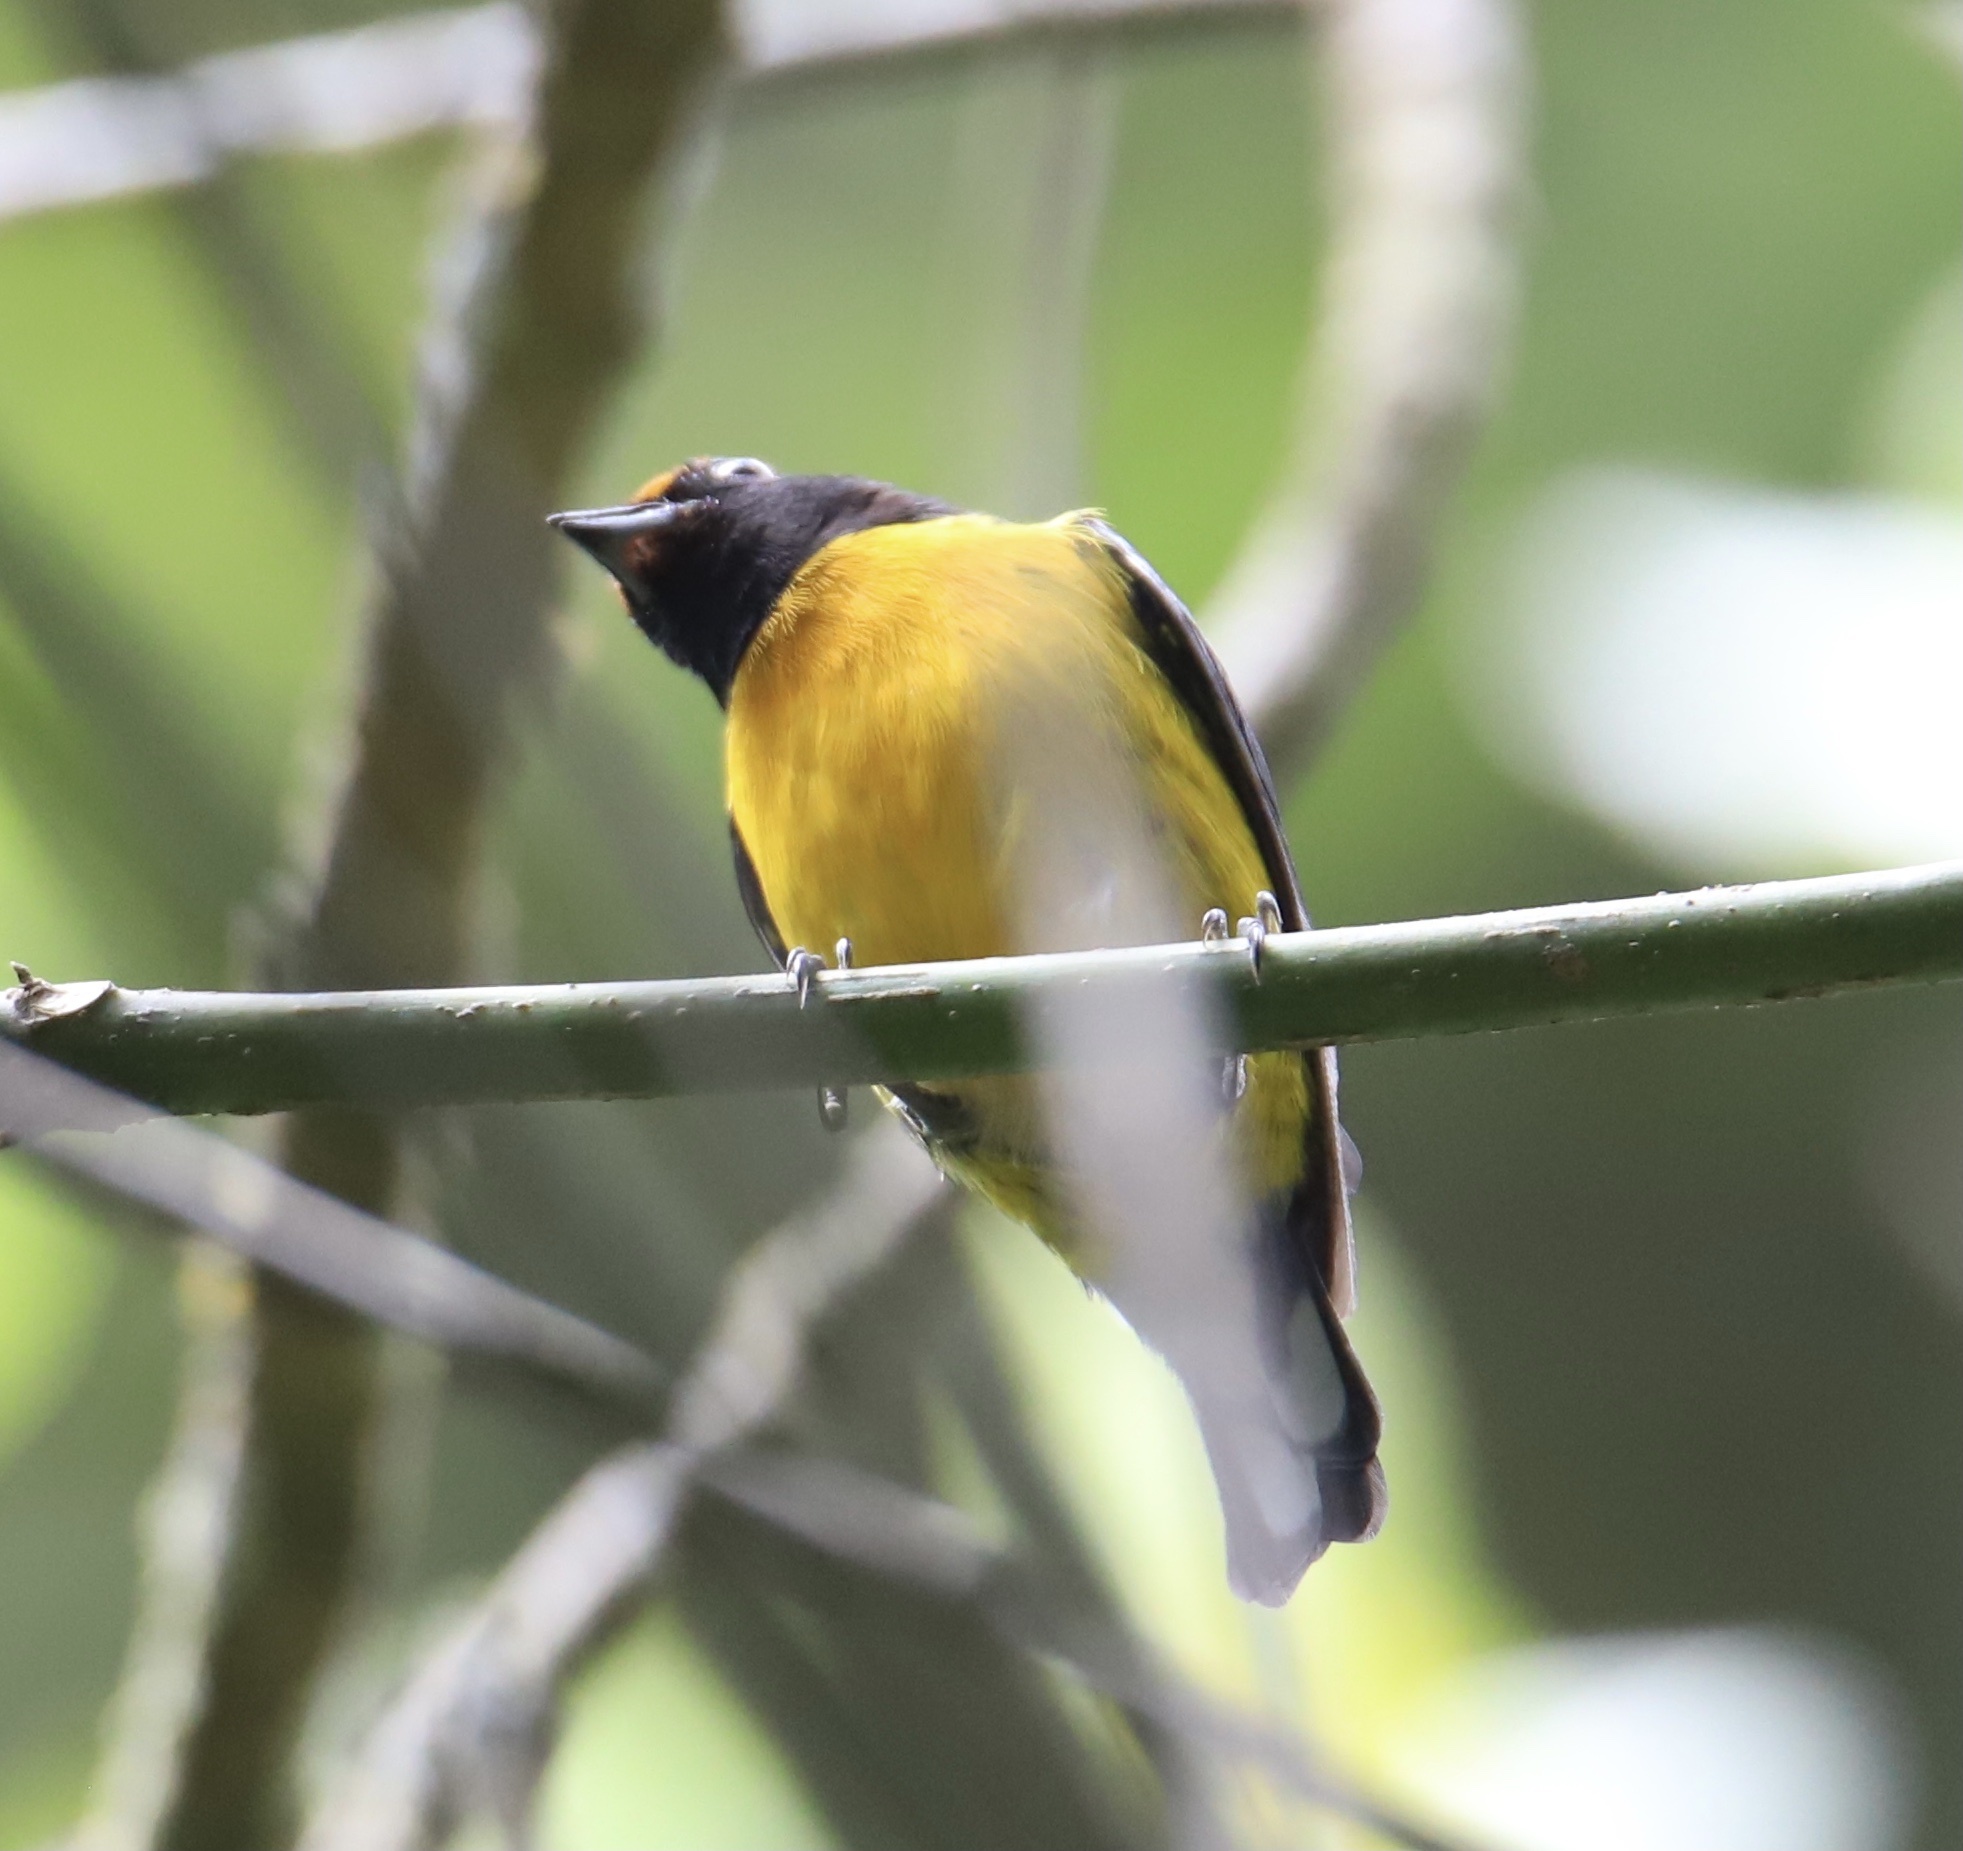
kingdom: Animalia
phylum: Chordata
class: Aves
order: Passeriformes
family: Fringillidae
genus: Euphonia
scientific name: Euphonia anneae
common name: Tawny-capped euphonia
